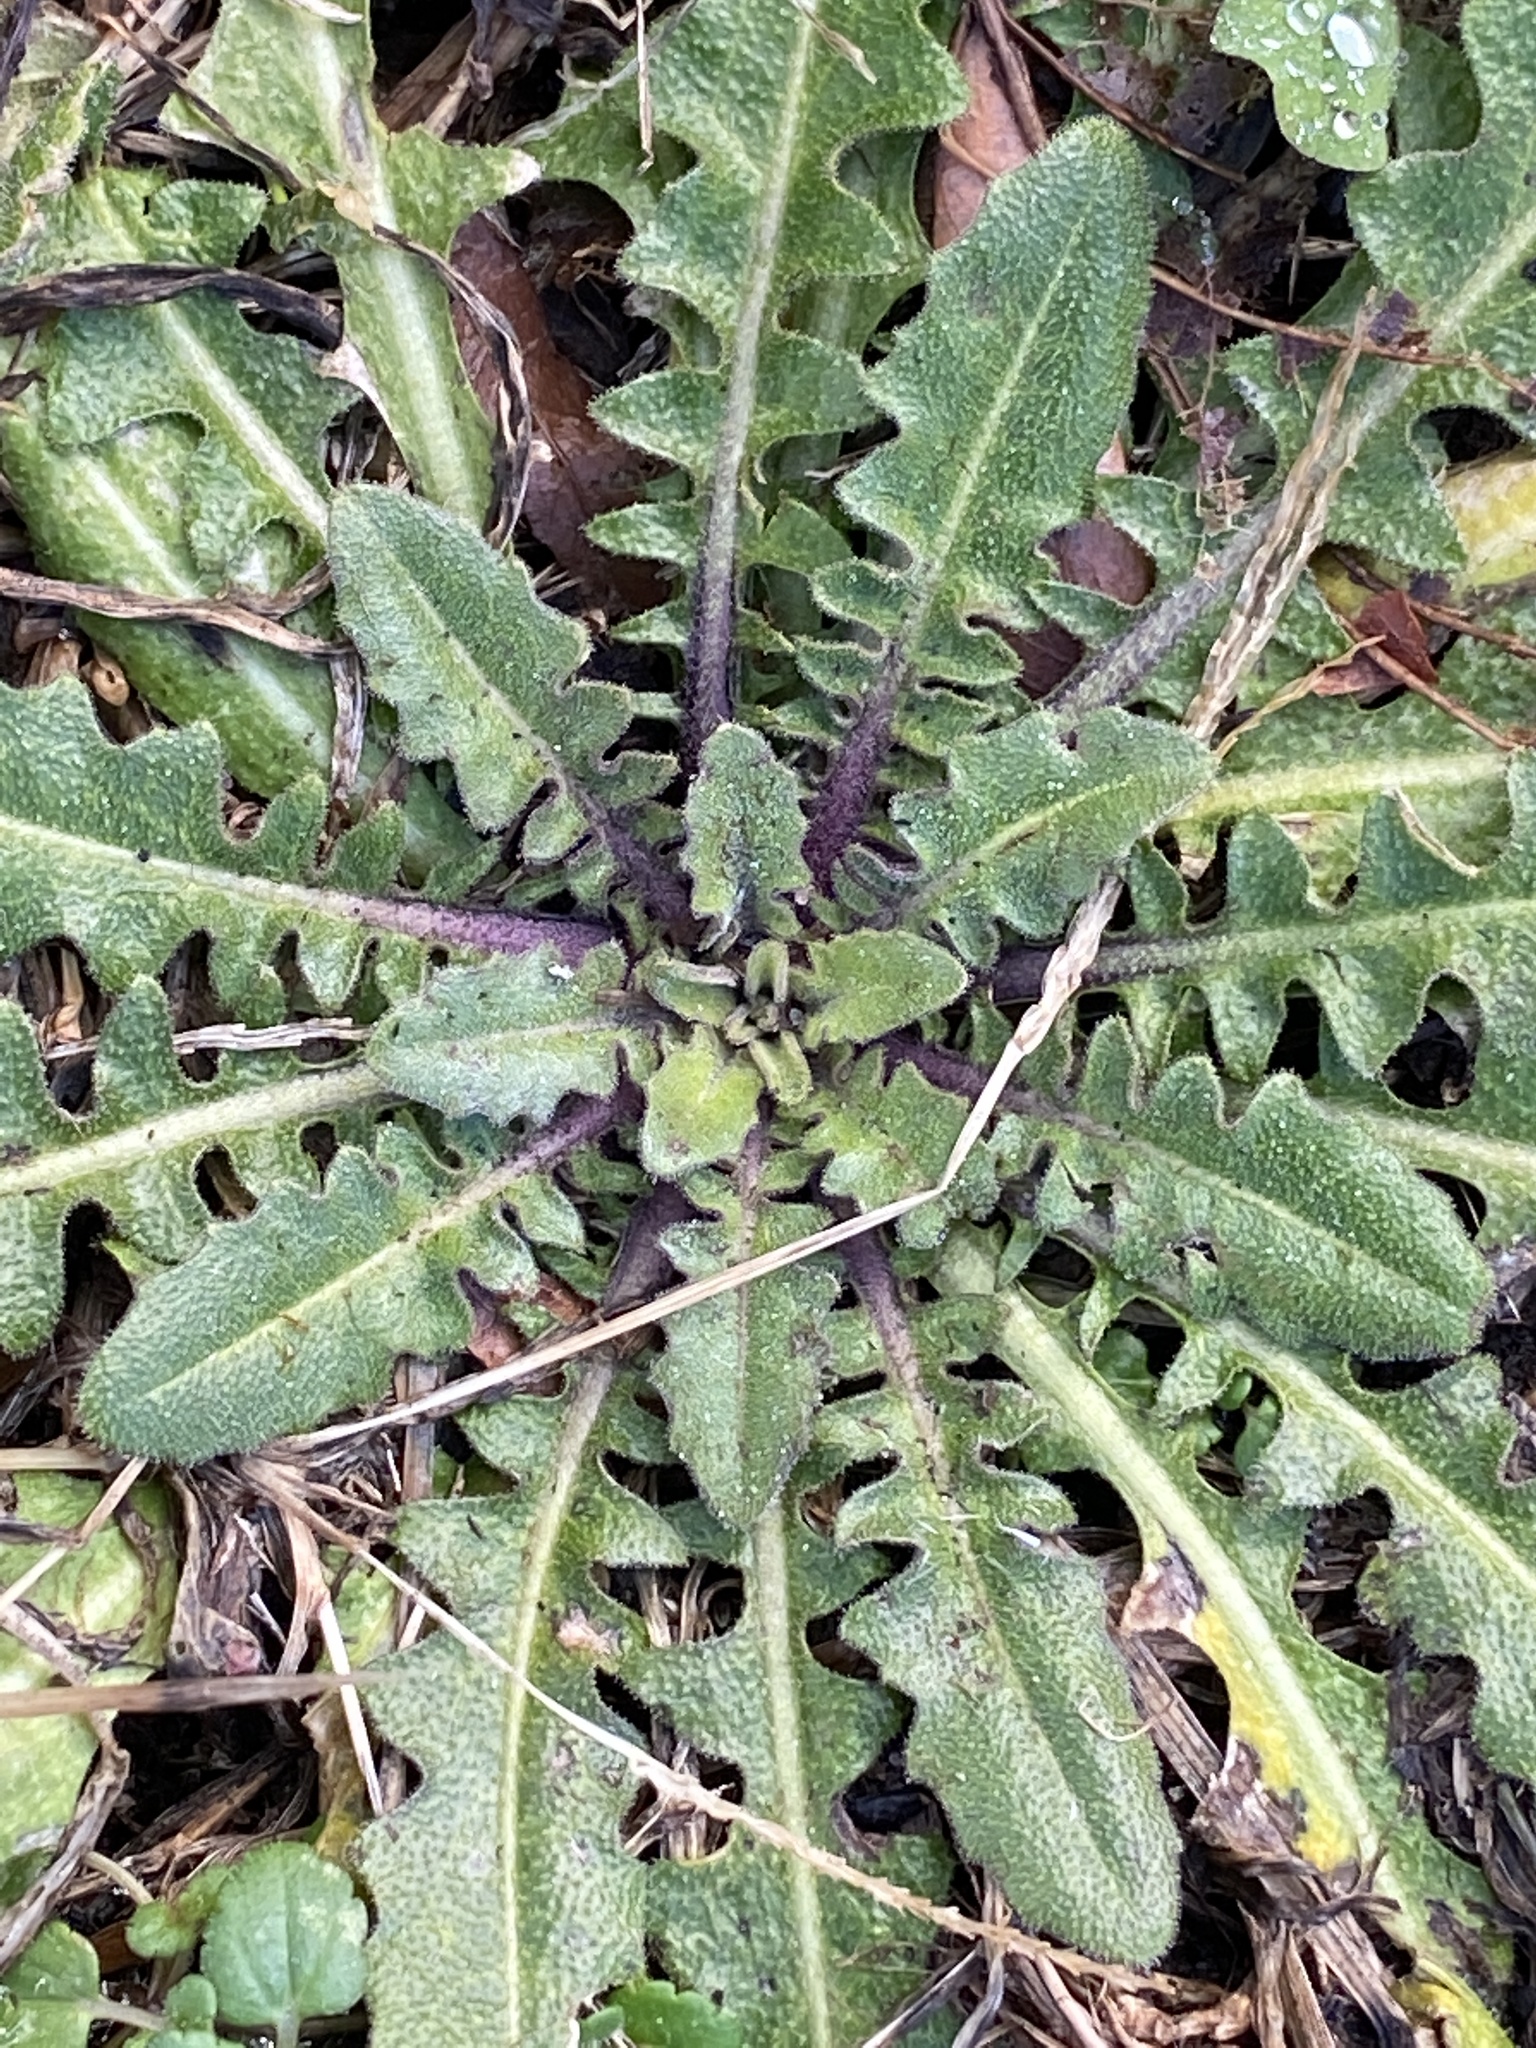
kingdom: Plantae
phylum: Tracheophyta
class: Magnoliopsida
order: Asterales
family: Asteraceae
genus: Hypochaeris
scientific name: Hypochaeris radicata
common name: Flatweed
